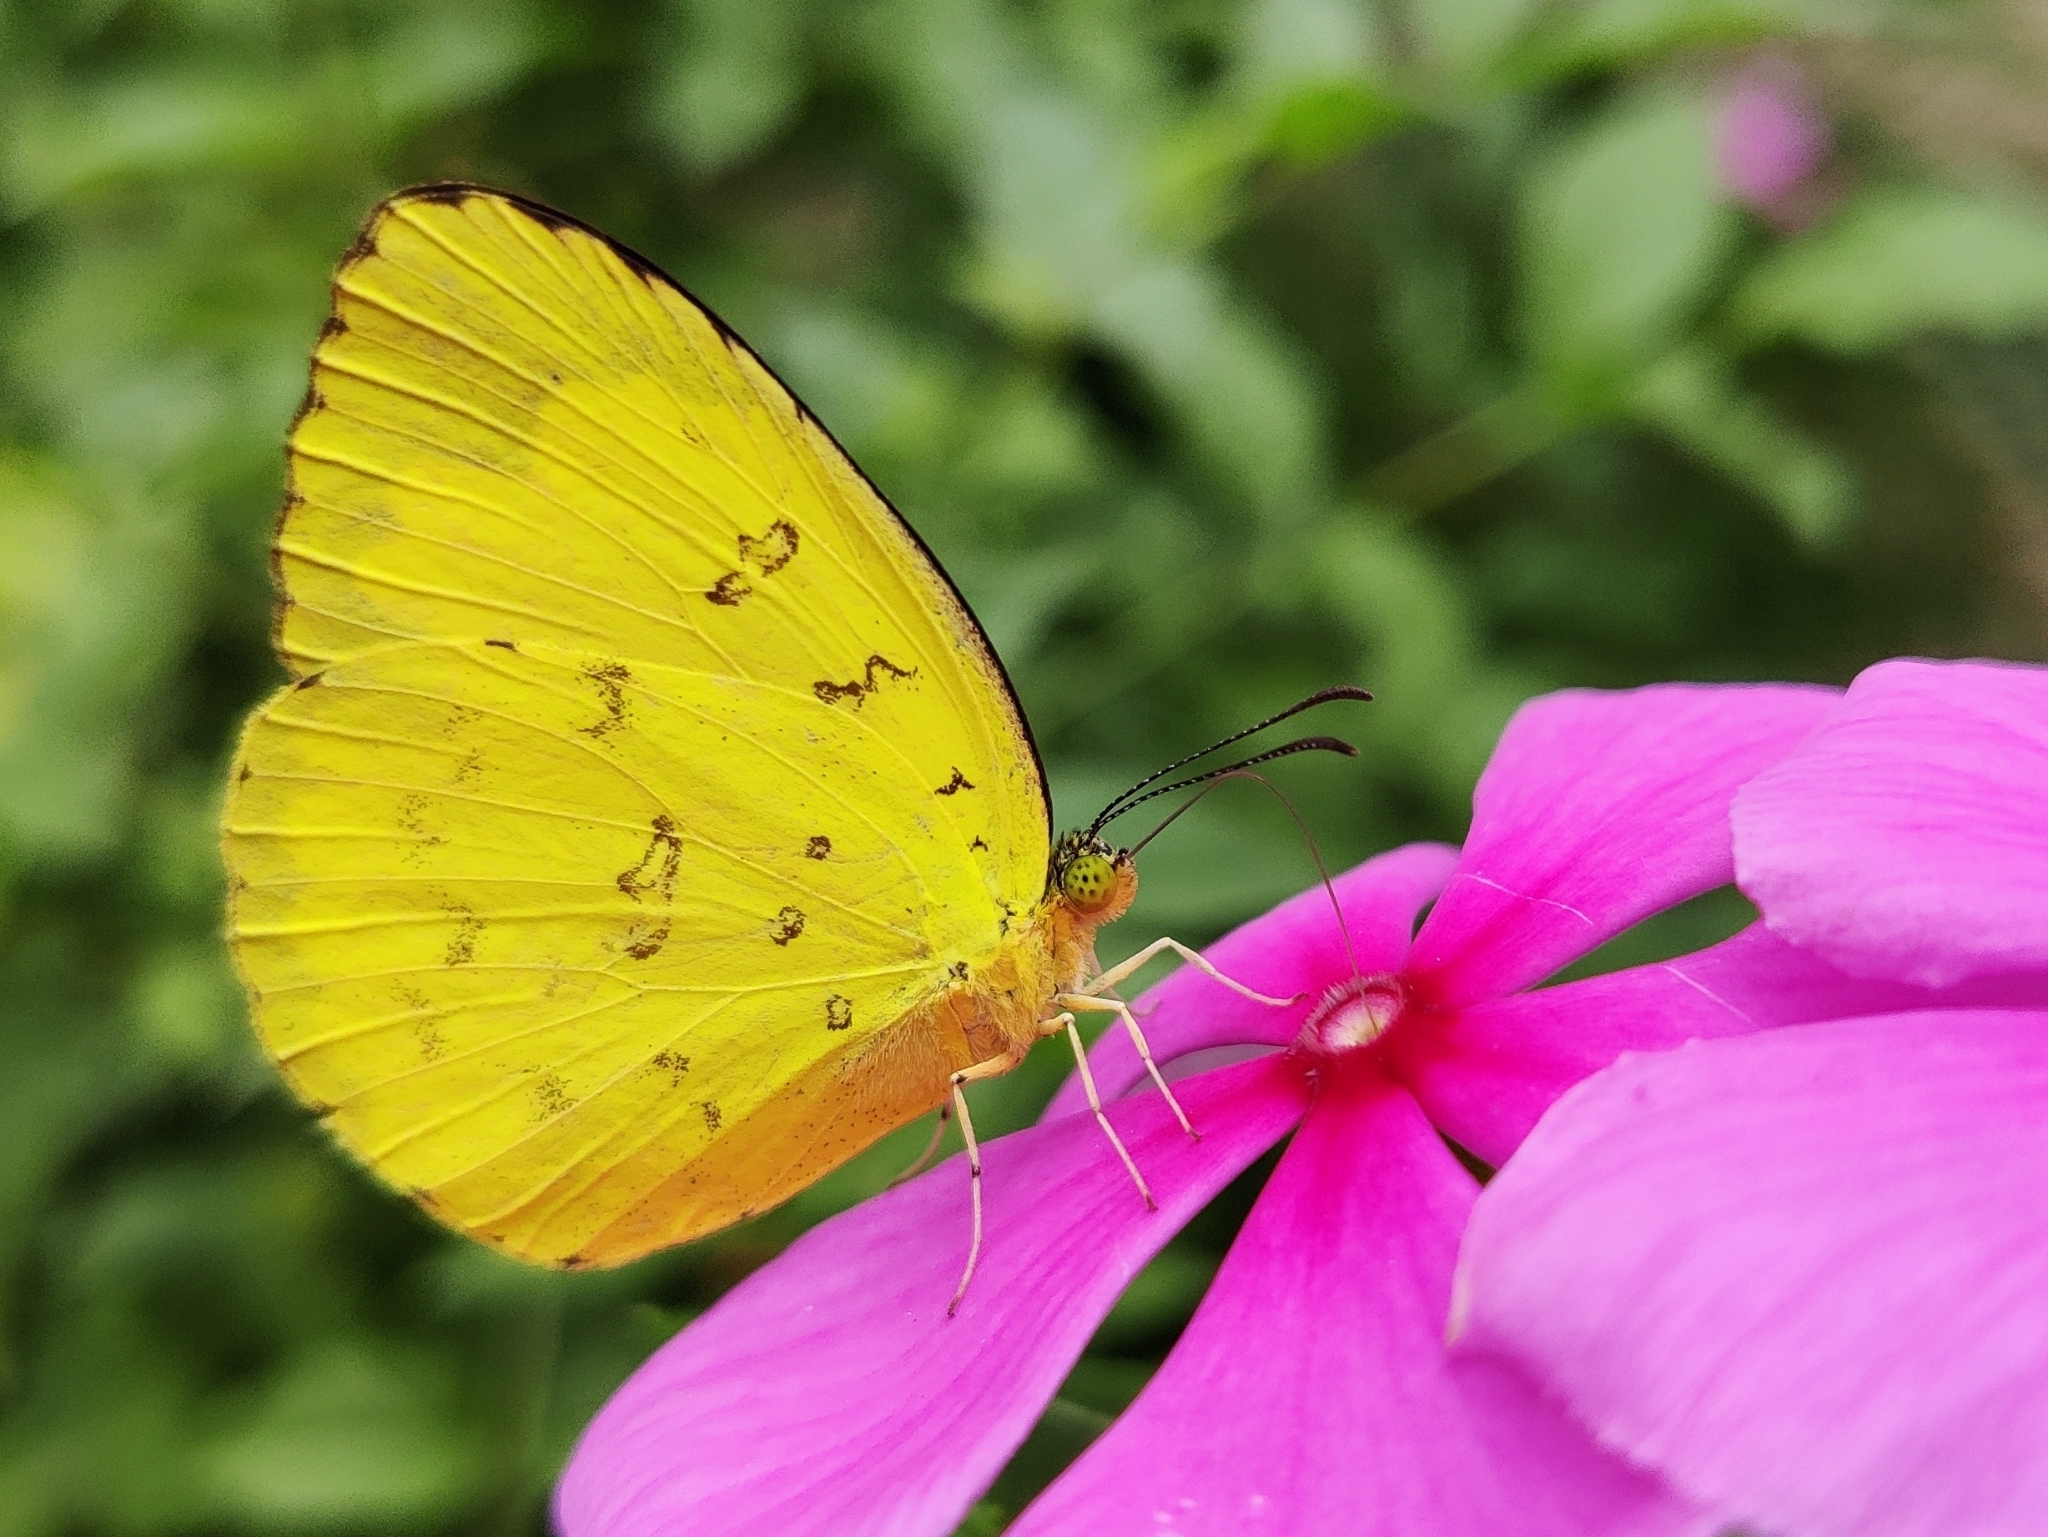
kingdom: Animalia
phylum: Arthropoda
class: Insecta
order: Lepidoptera
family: Pieridae
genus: Eurema
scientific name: Eurema blanda
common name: Three-spot grass yellow
